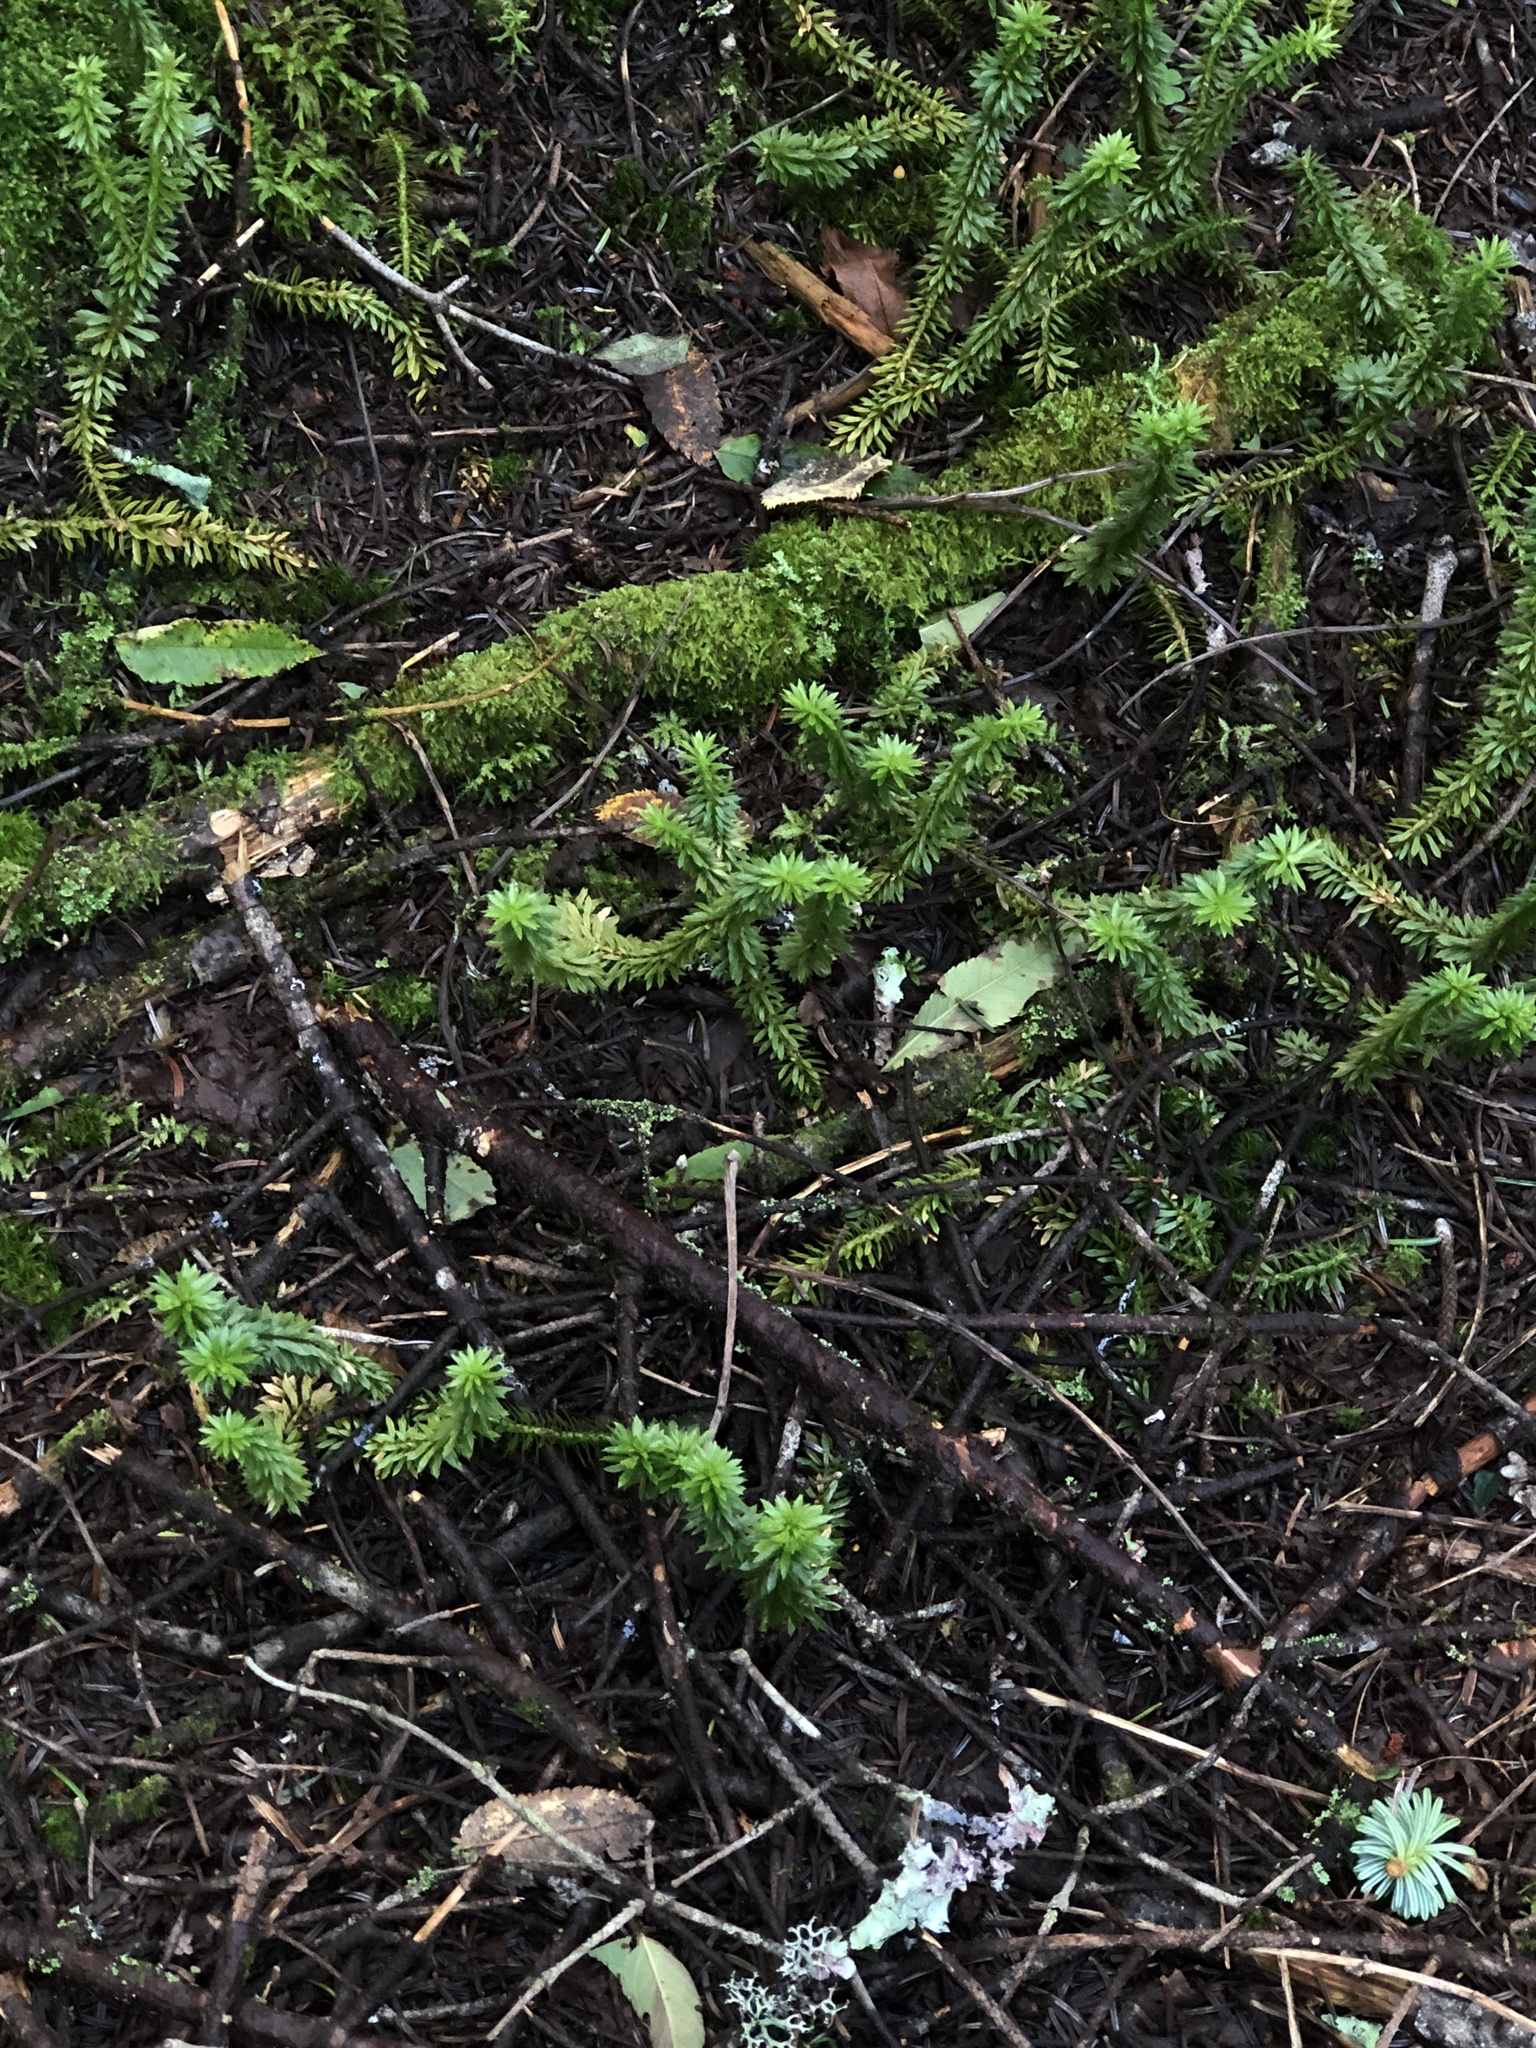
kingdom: Plantae
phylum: Tracheophyta
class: Lycopodiopsida
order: Lycopodiales
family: Lycopodiaceae
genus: Huperzia
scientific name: Huperzia lucidula
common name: Shining clubmoss
